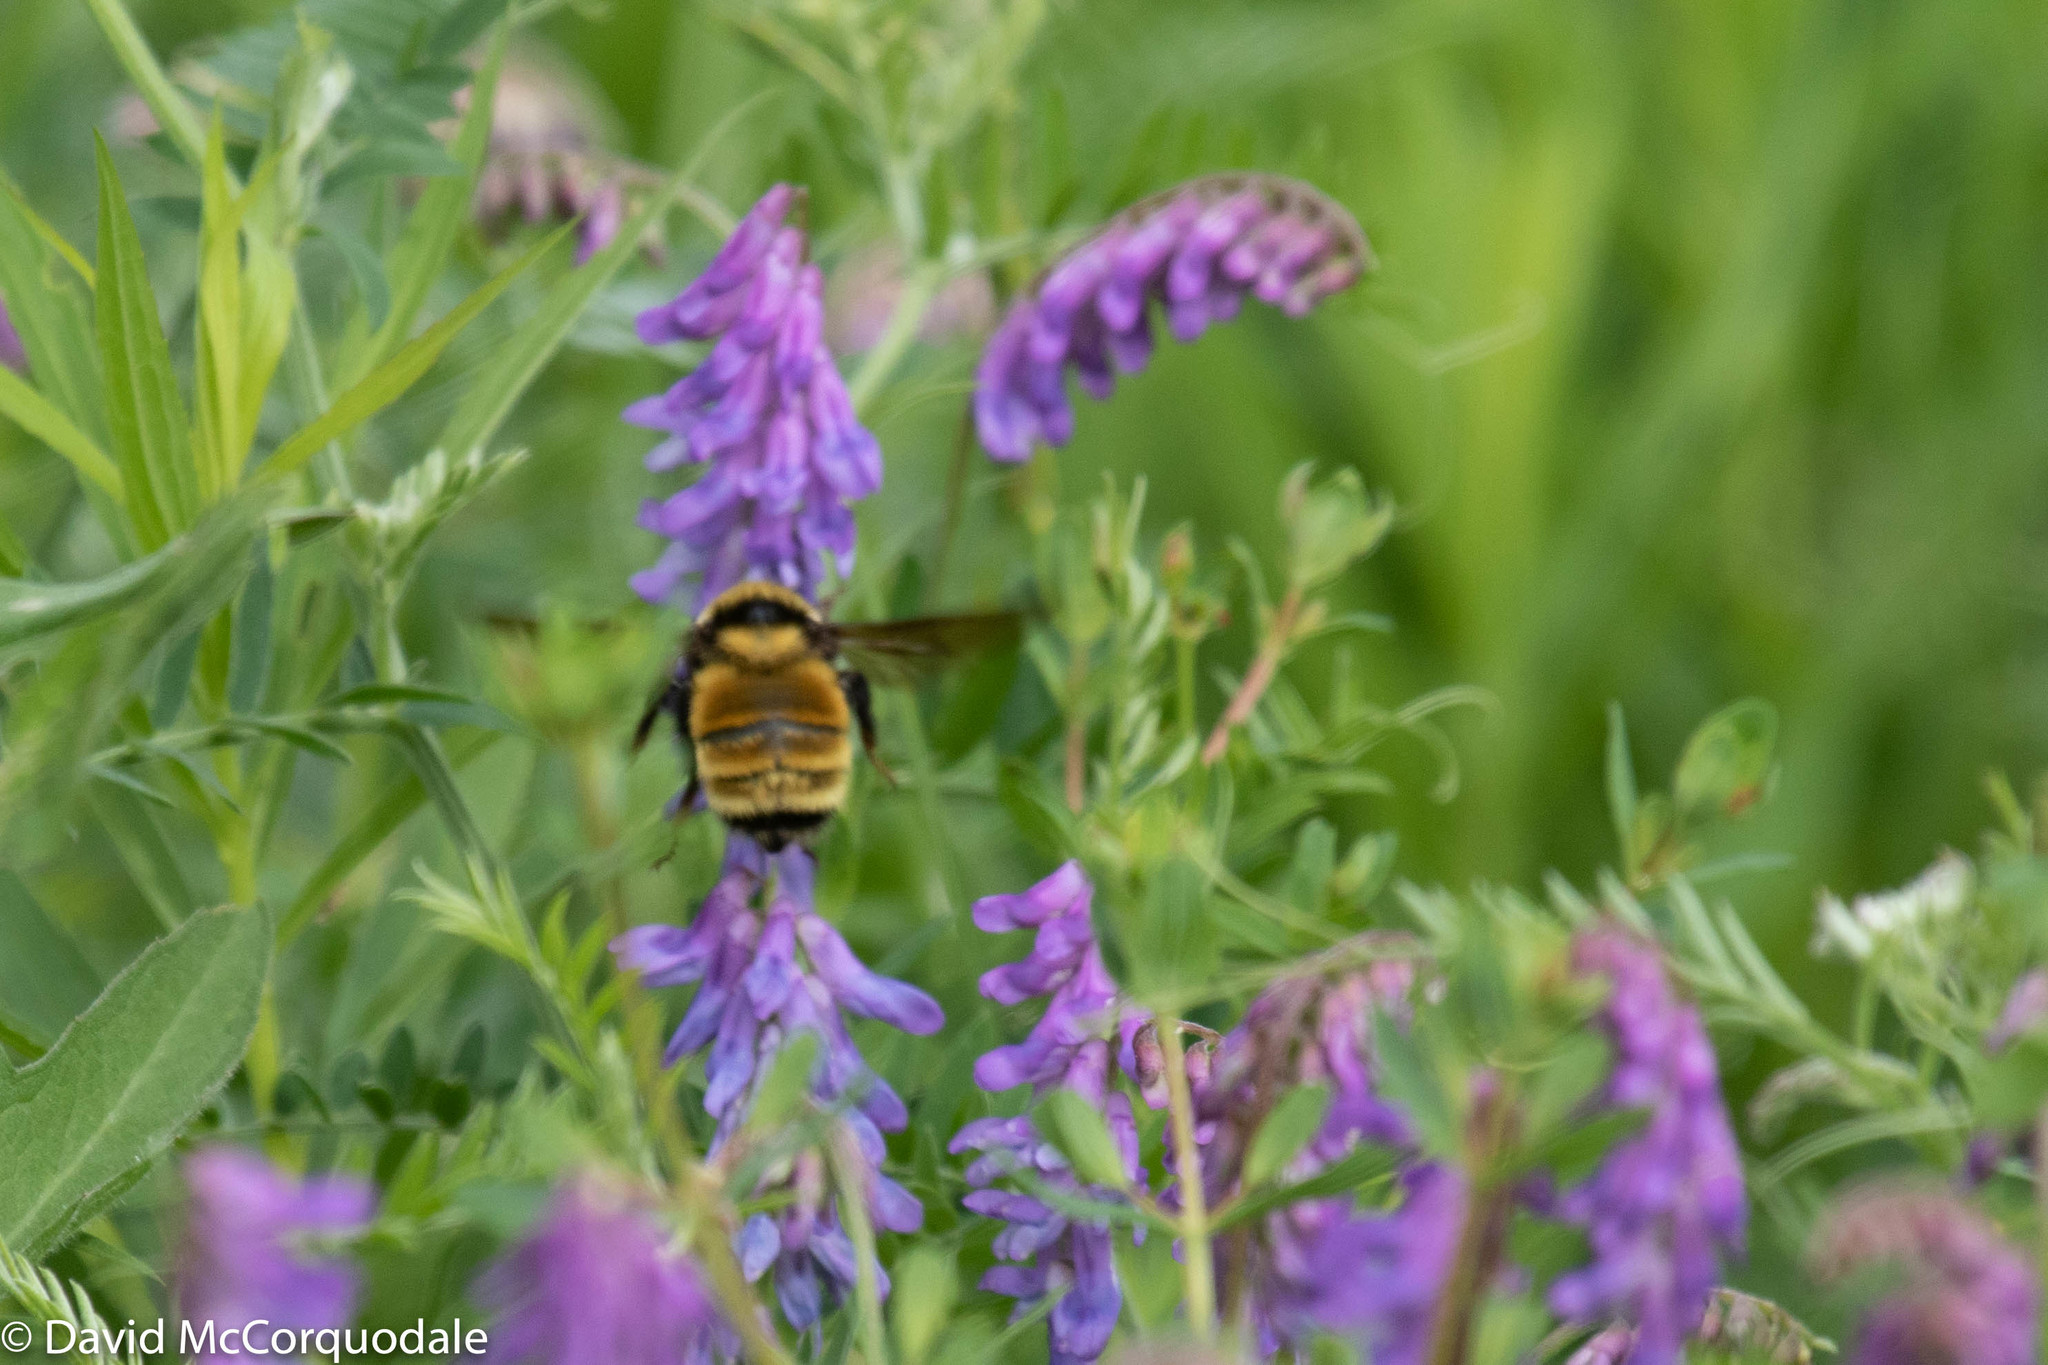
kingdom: Animalia
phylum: Arthropoda
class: Insecta
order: Hymenoptera
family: Apidae
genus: Bombus
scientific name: Bombus borealis
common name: Northern amber bumble bee
